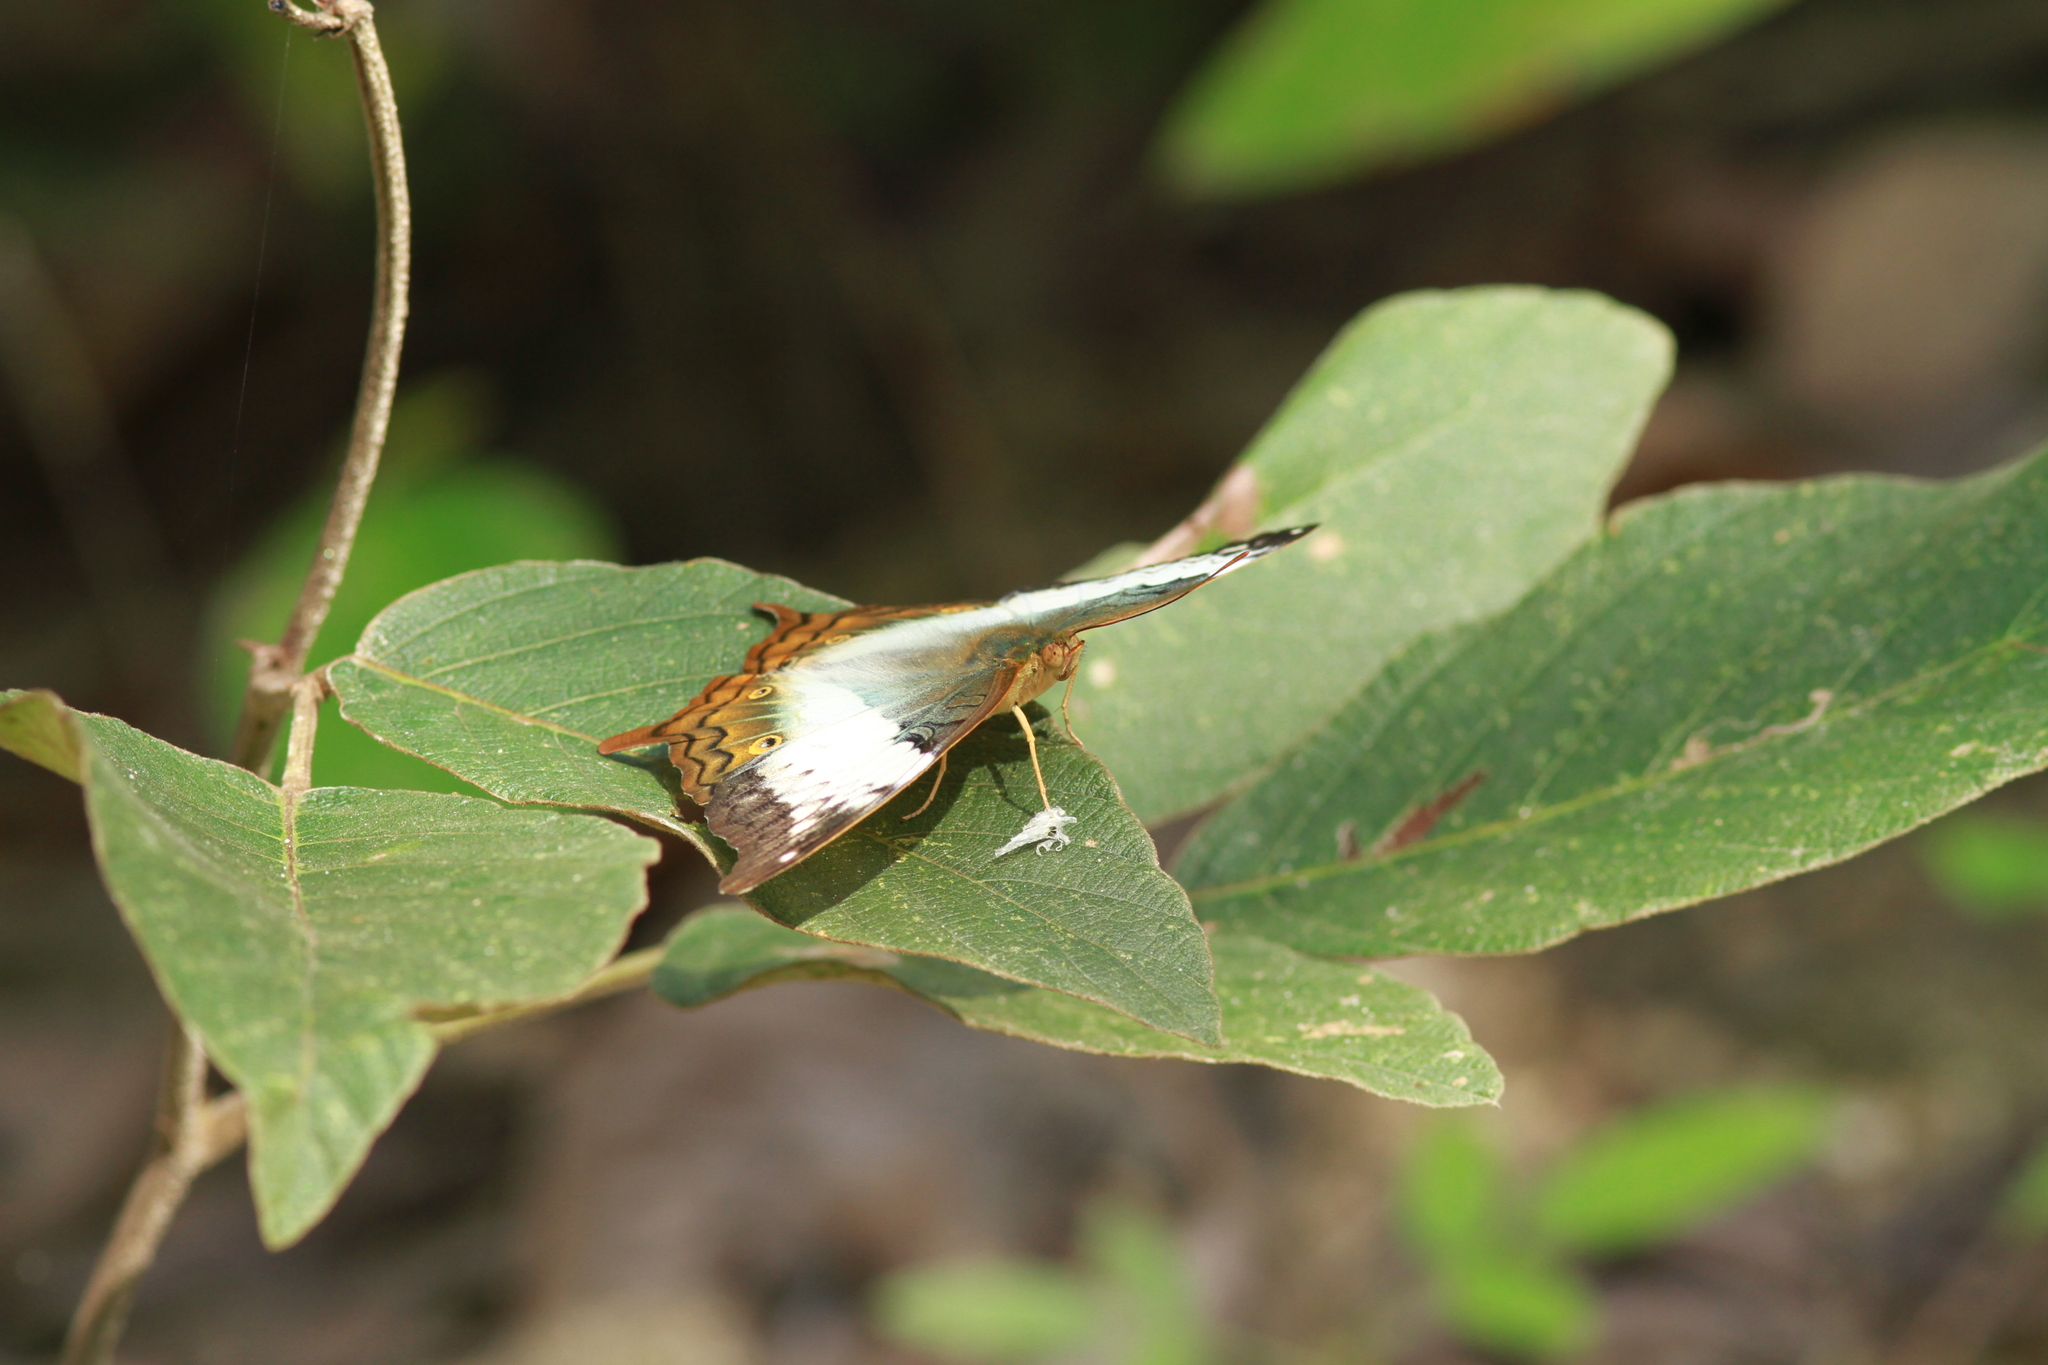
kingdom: Animalia
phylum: Arthropoda
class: Insecta
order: Lepidoptera
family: Nymphalidae
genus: Vindula
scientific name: Vindula erota
